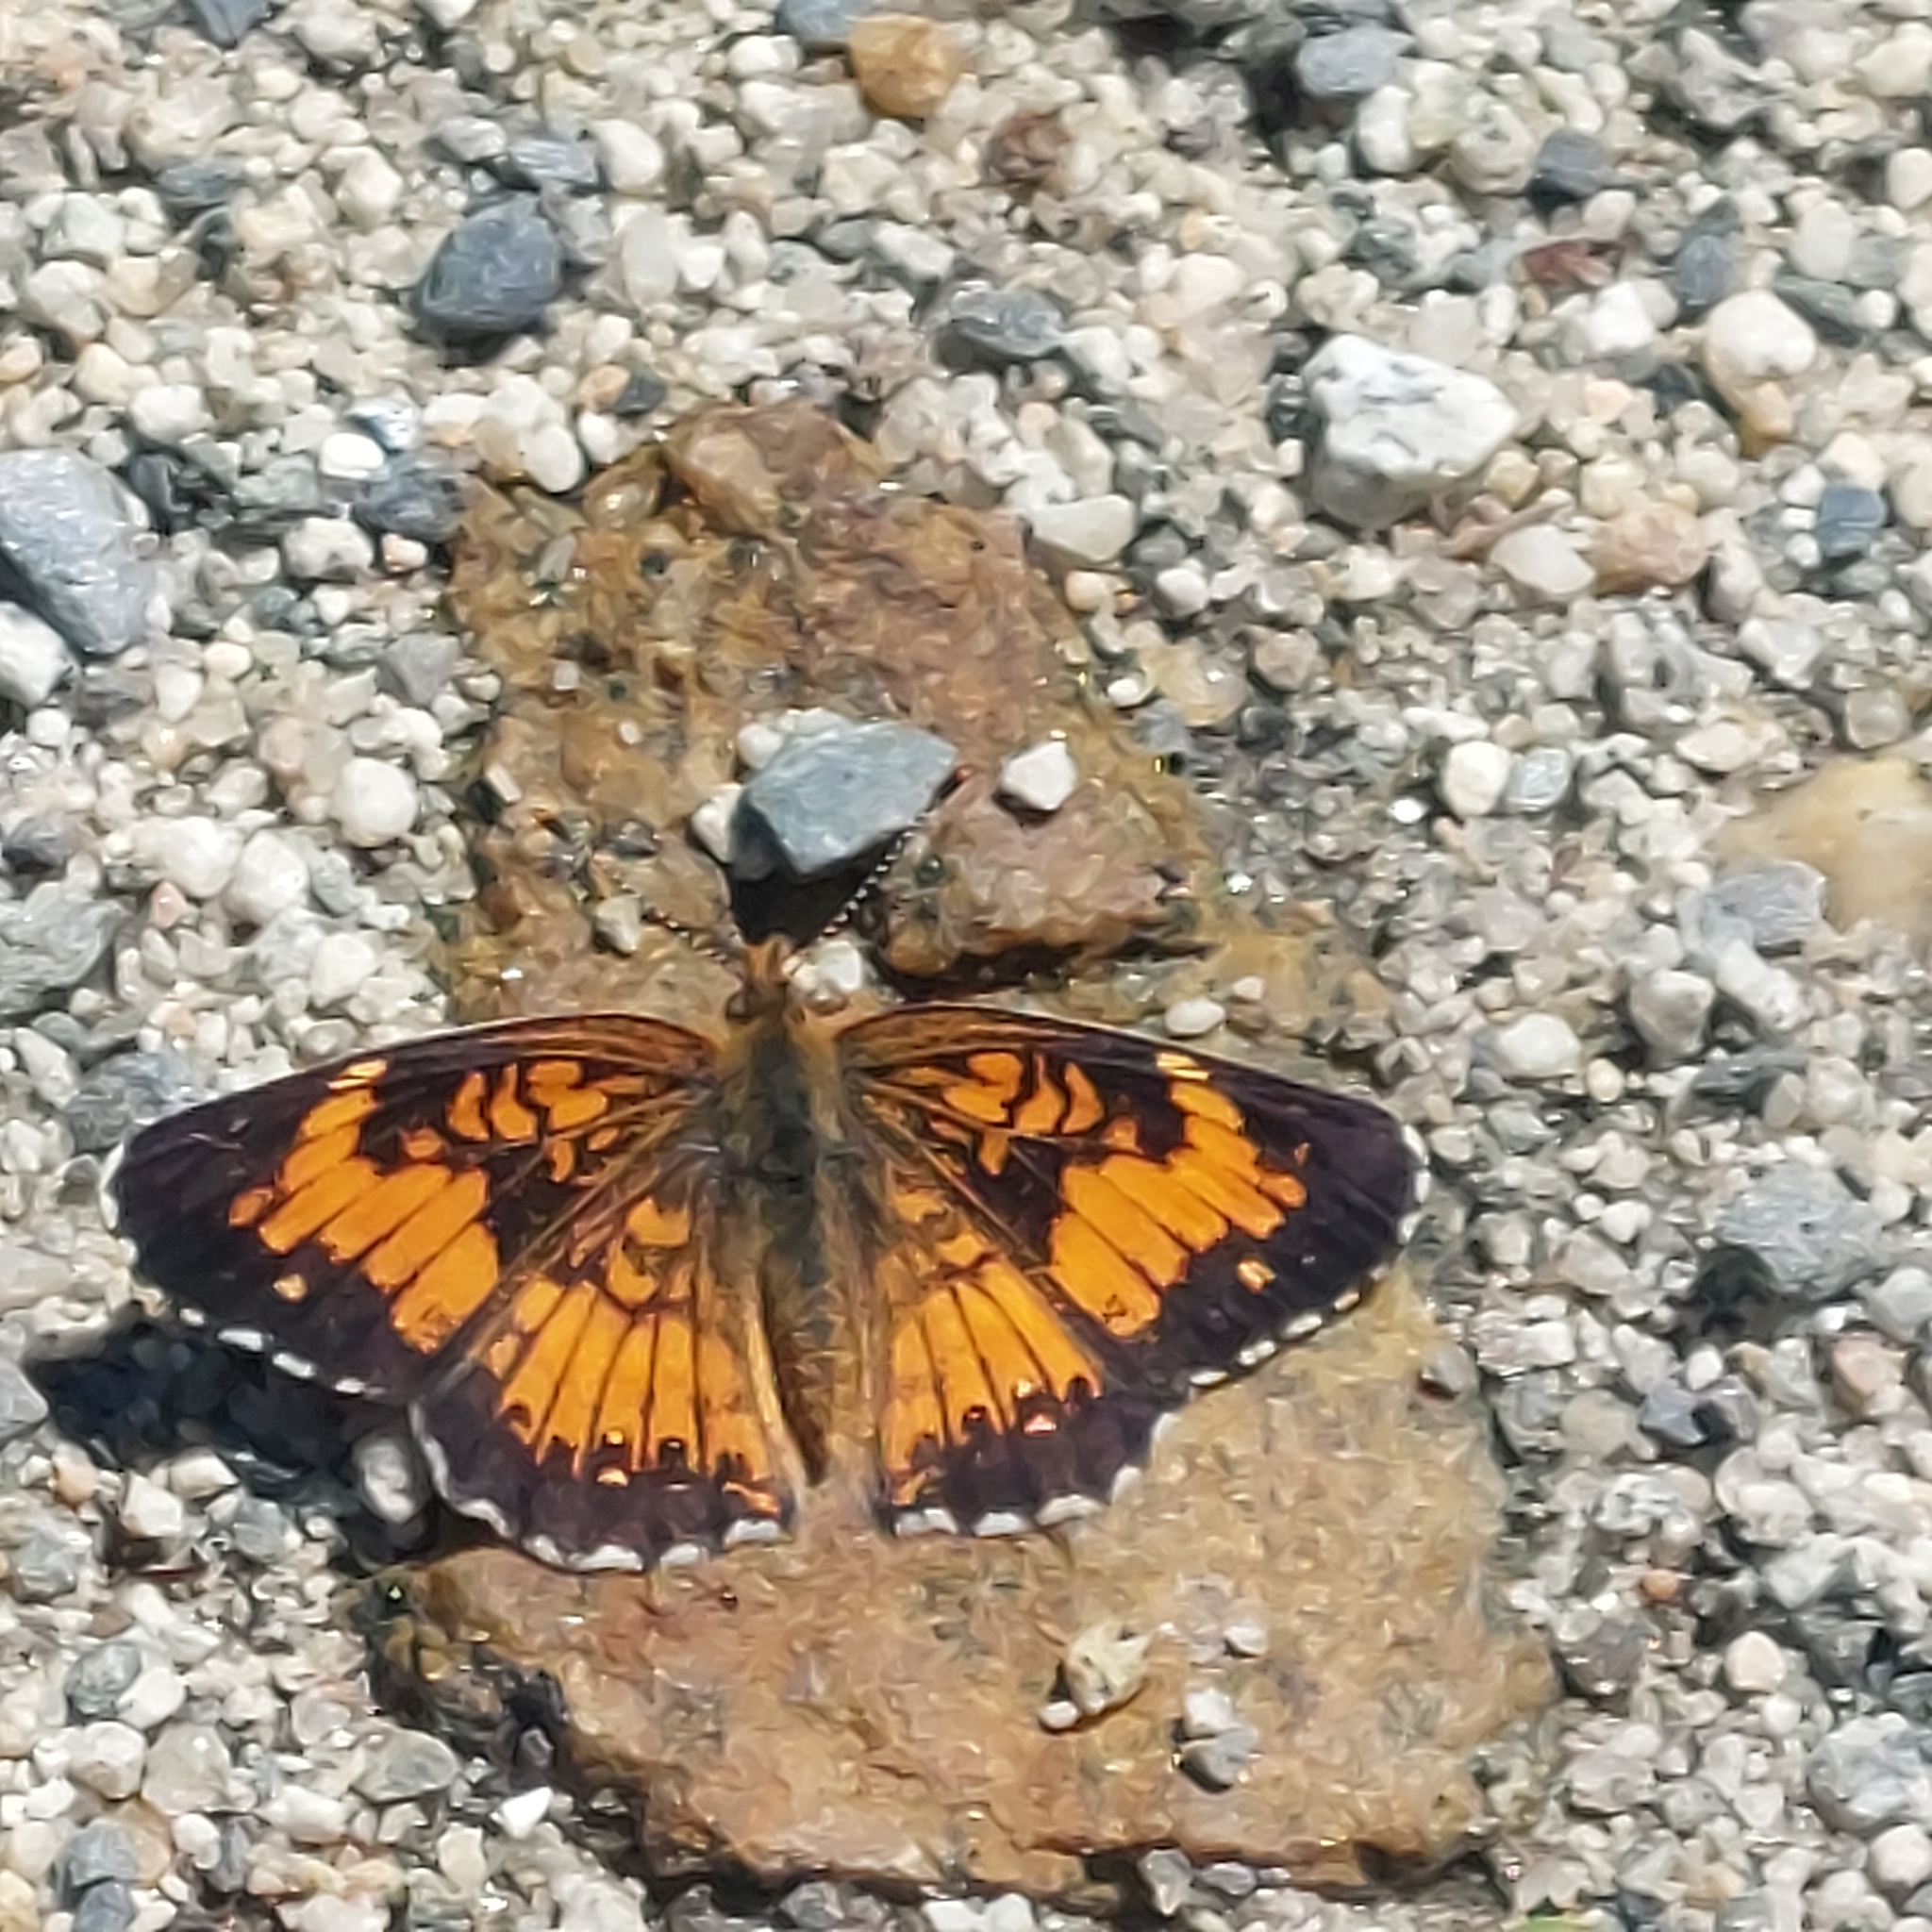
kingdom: Animalia
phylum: Arthropoda
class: Insecta
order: Lepidoptera
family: Nymphalidae
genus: Chlosyne
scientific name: Chlosyne harrisii
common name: Harris's checkerspot
